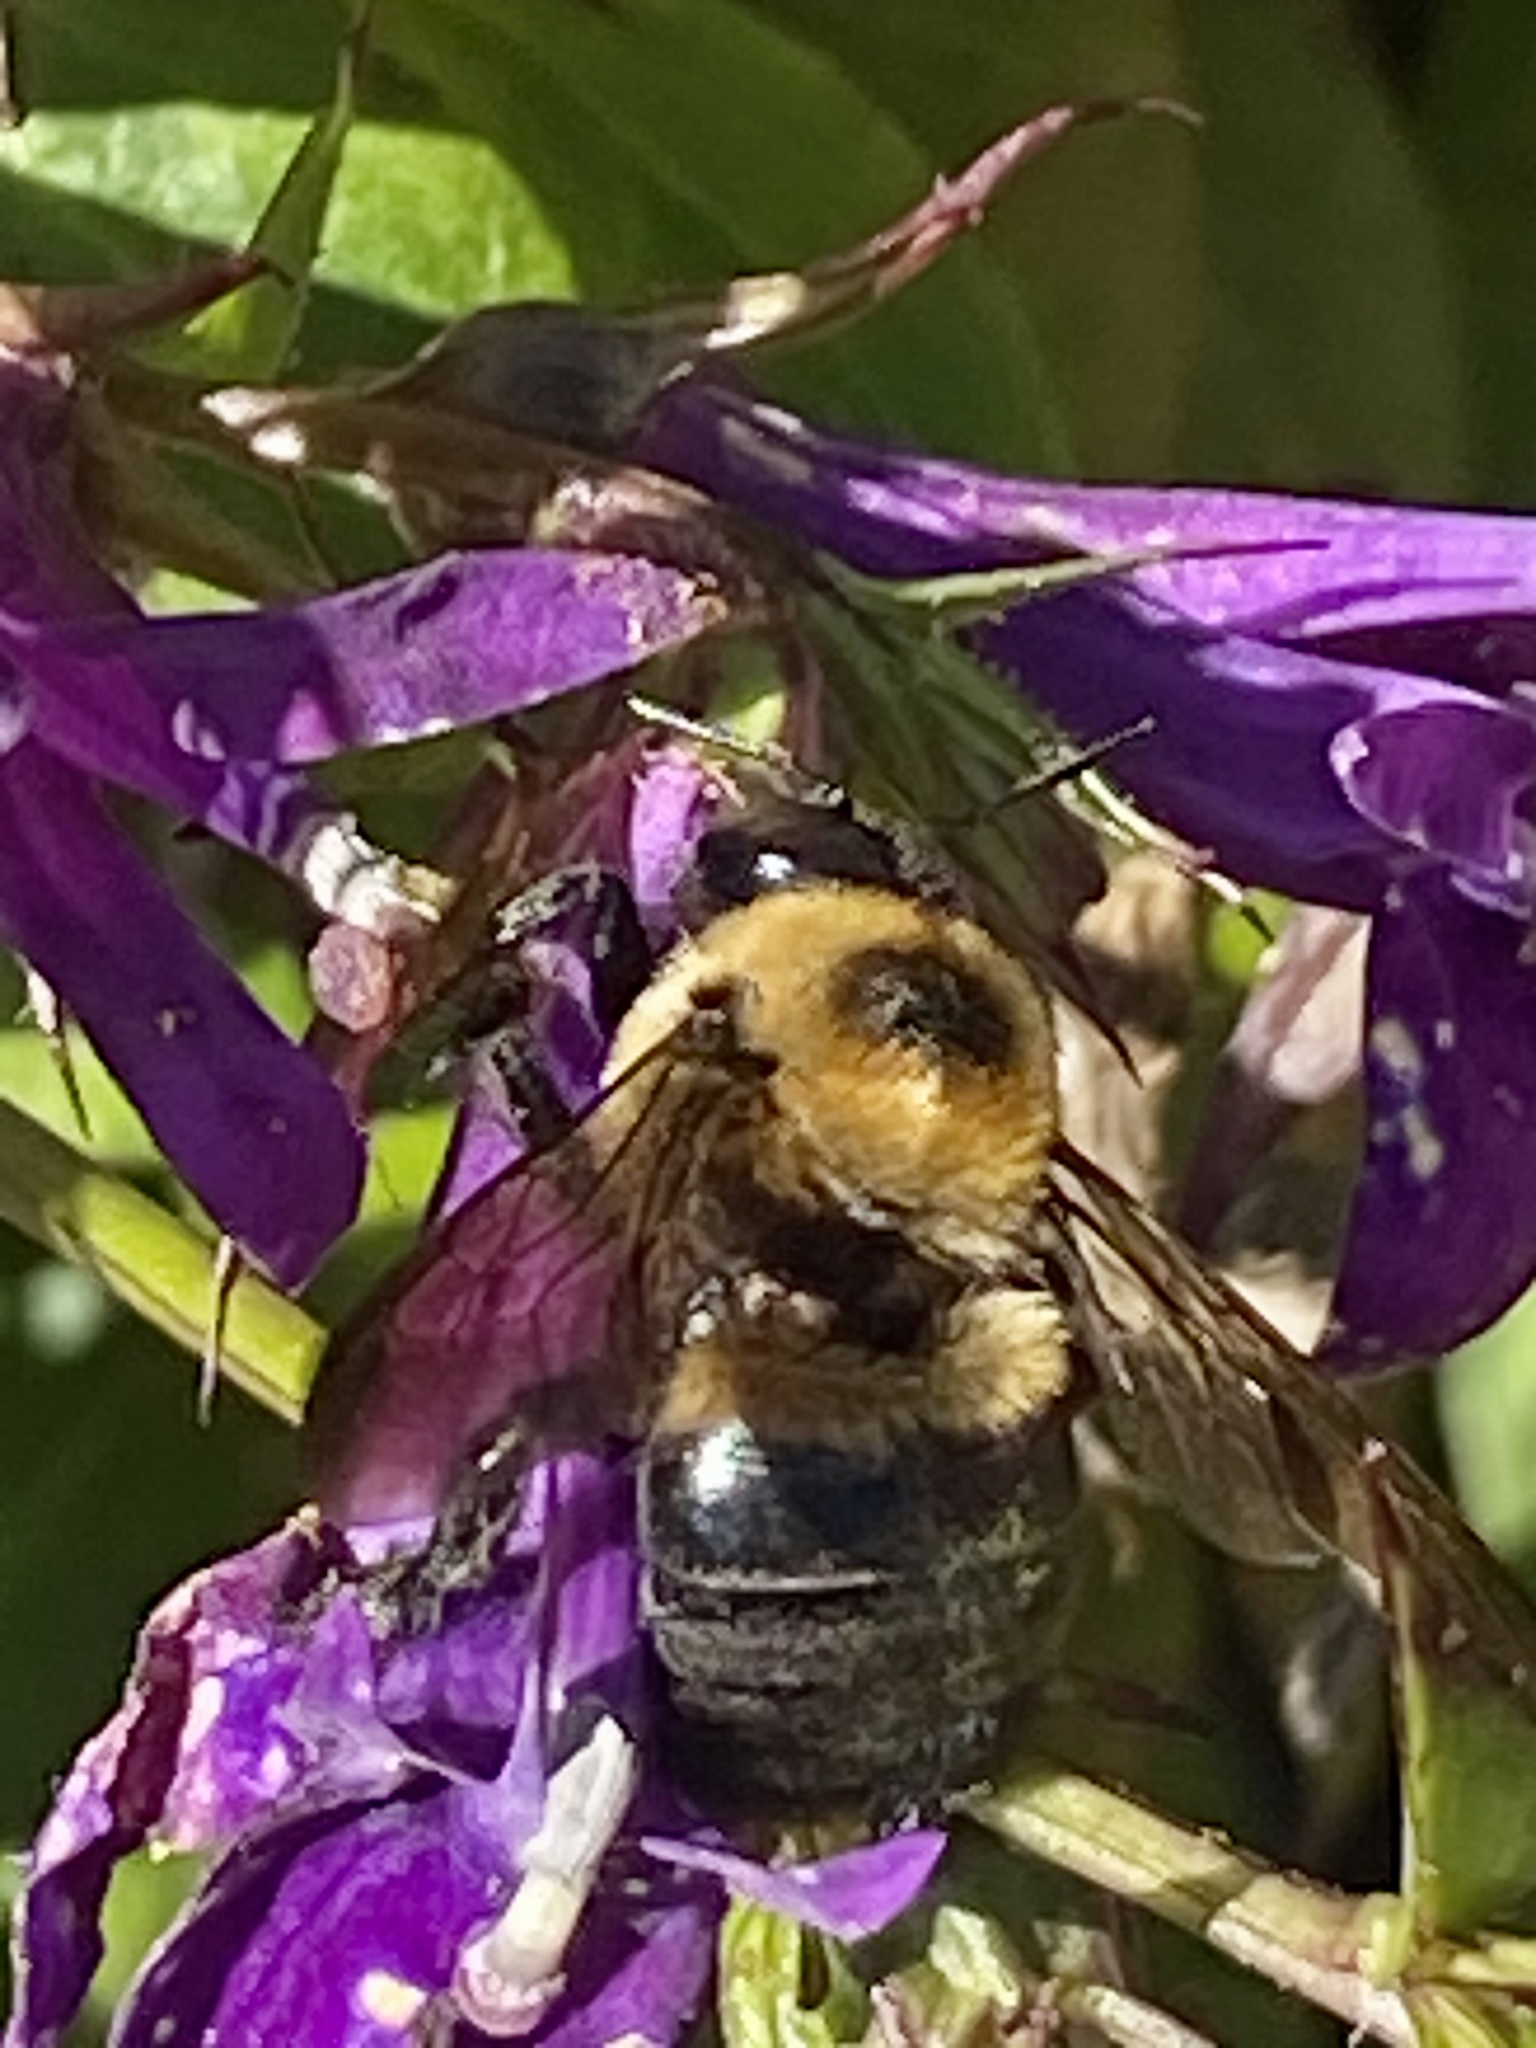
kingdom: Animalia
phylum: Arthropoda
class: Insecta
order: Hymenoptera
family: Apidae
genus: Xylocopa
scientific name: Xylocopa virginica
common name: Carpenter bee
